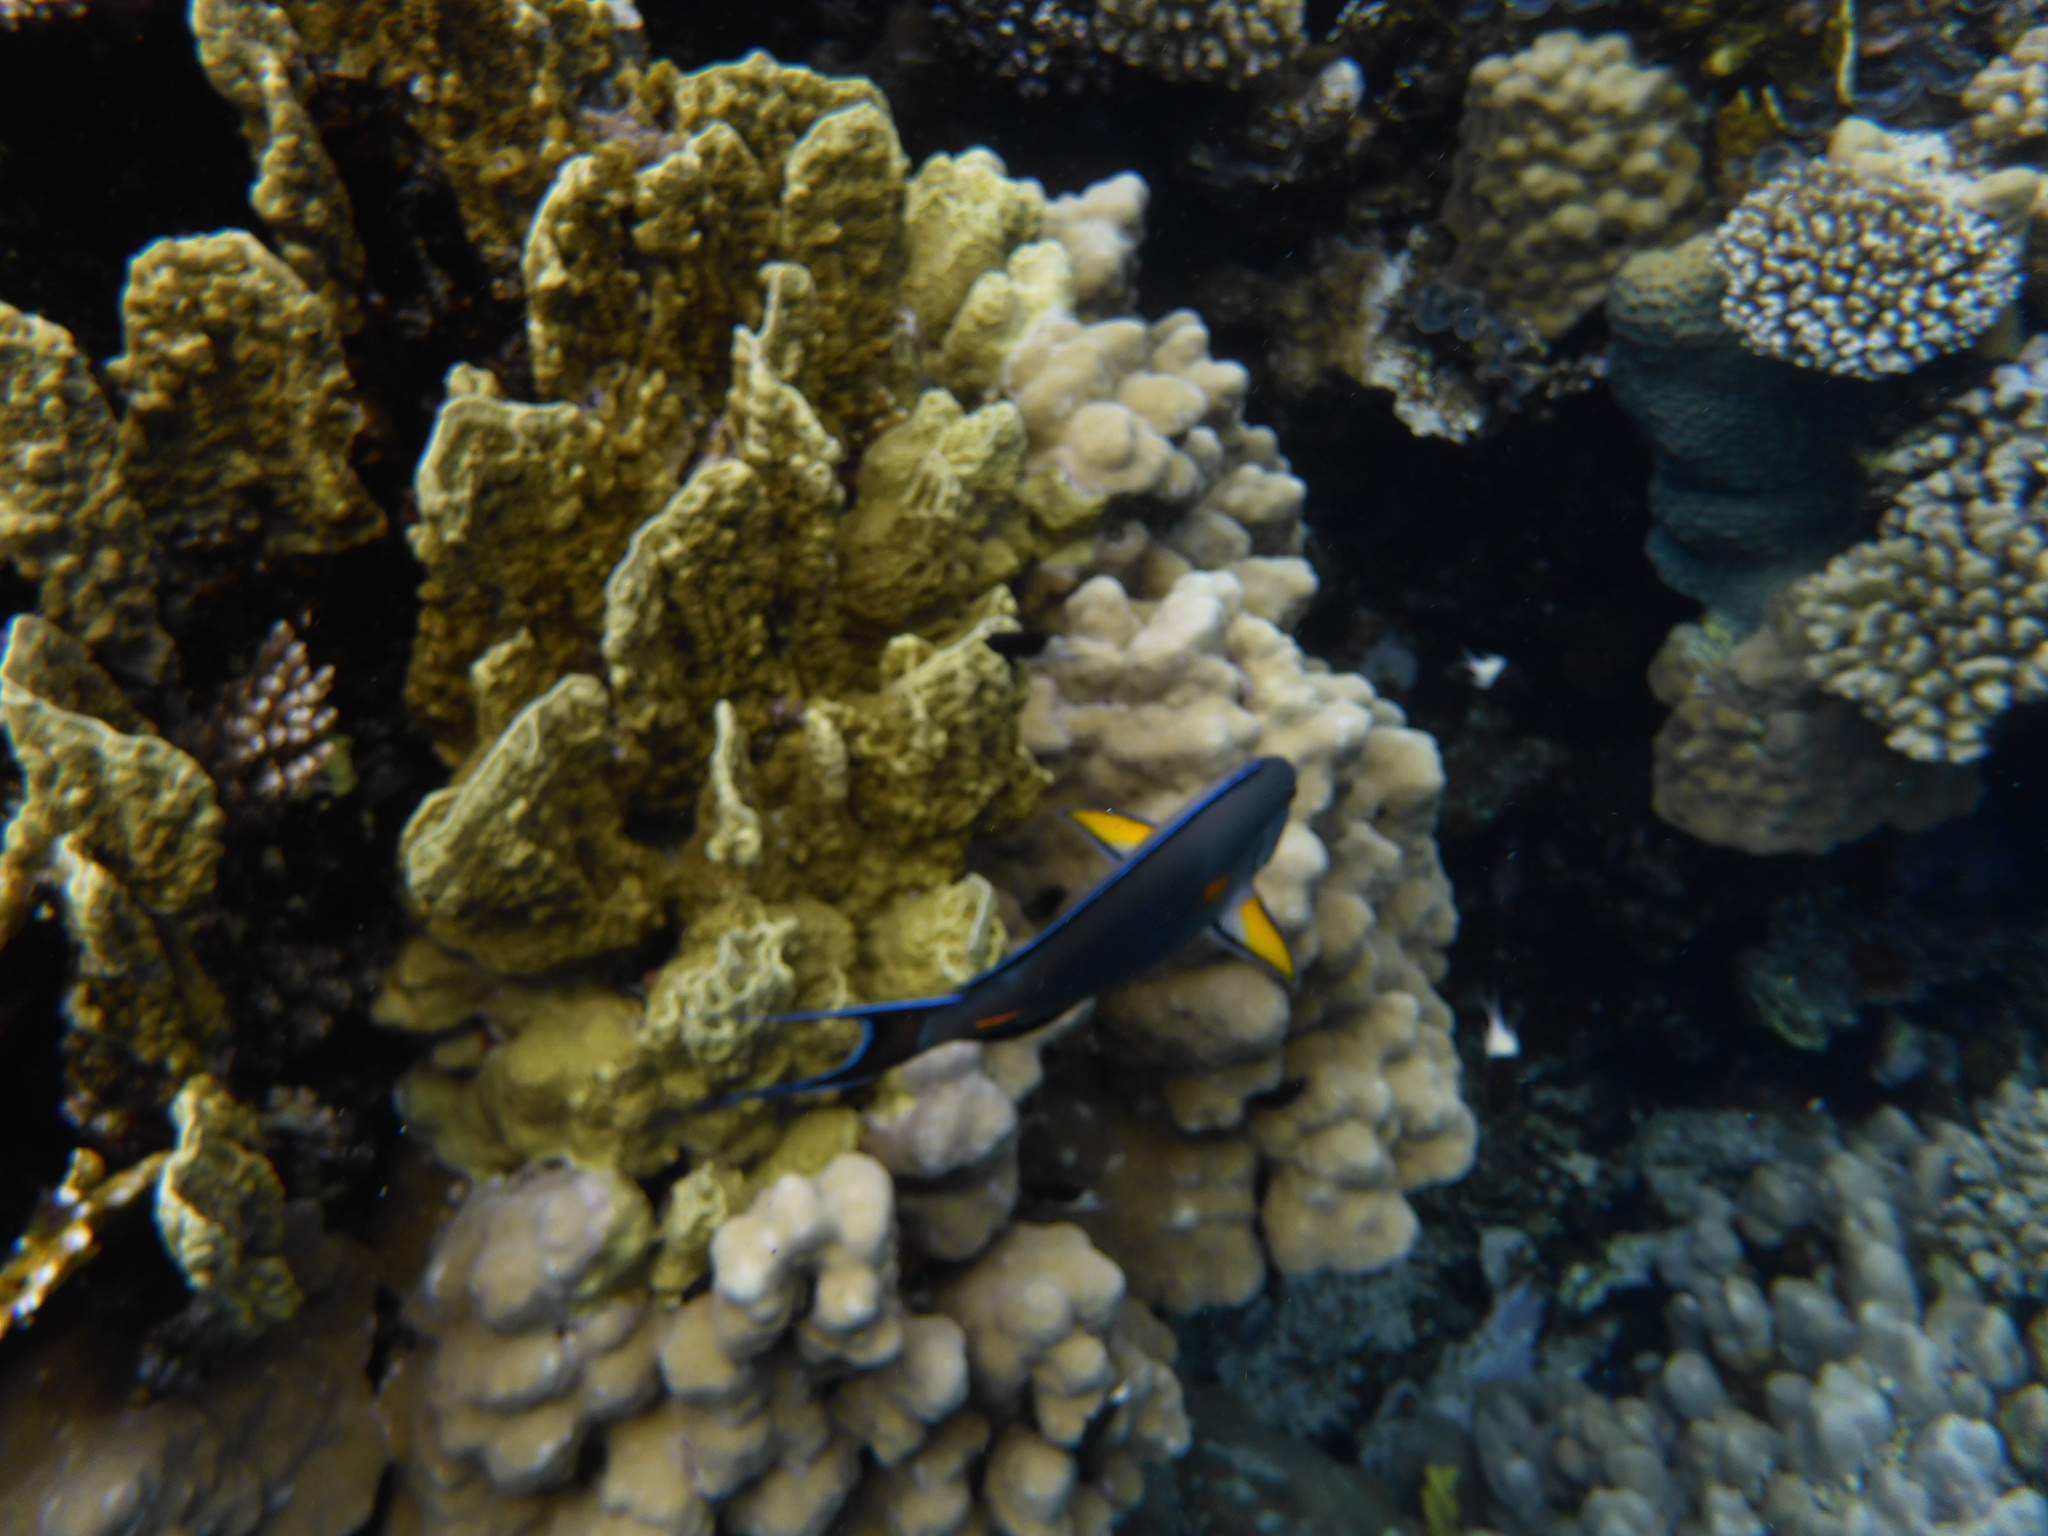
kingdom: Animalia
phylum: Chordata
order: Perciformes
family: Acanthuridae
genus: Acanthurus
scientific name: Acanthurus sohal
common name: Red sea surgeonfish
